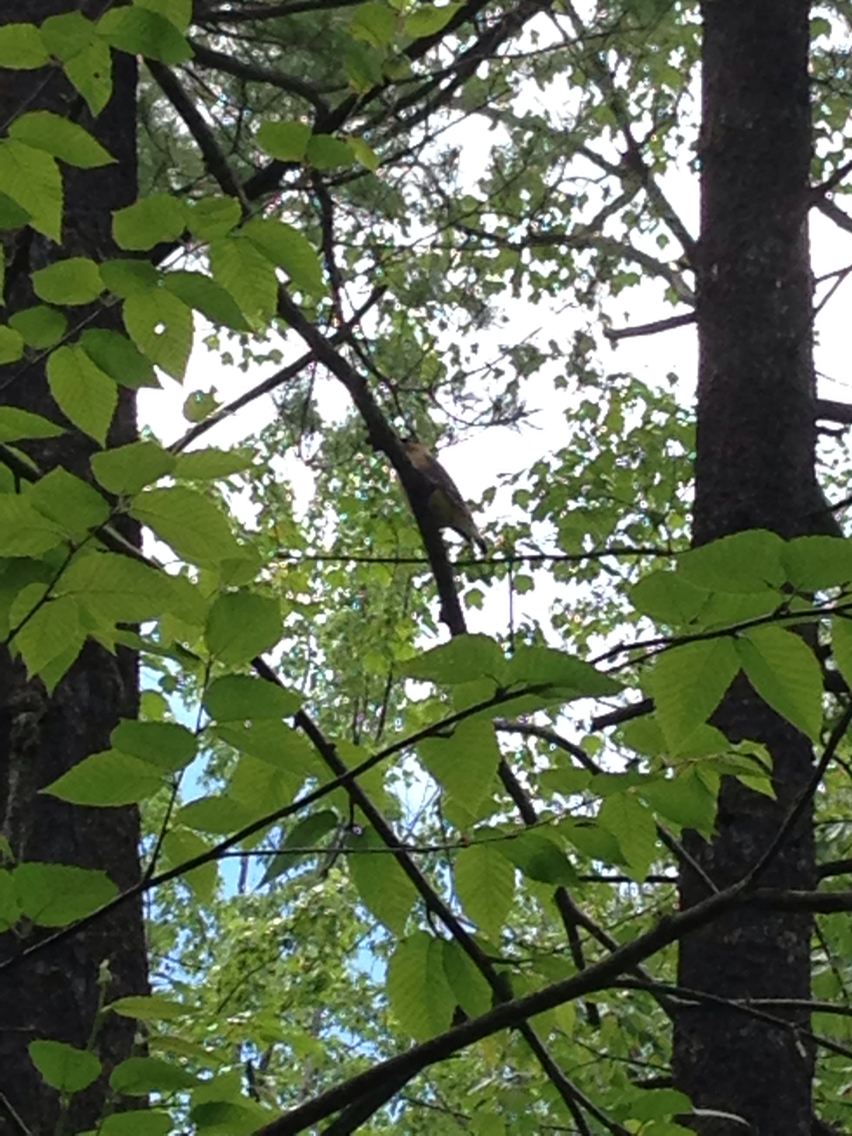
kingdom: Animalia
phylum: Chordata
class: Aves
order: Passeriformes
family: Bombycillidae
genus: Bombycilla
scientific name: Bombycilla cedrorum
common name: Cedar waxwing
